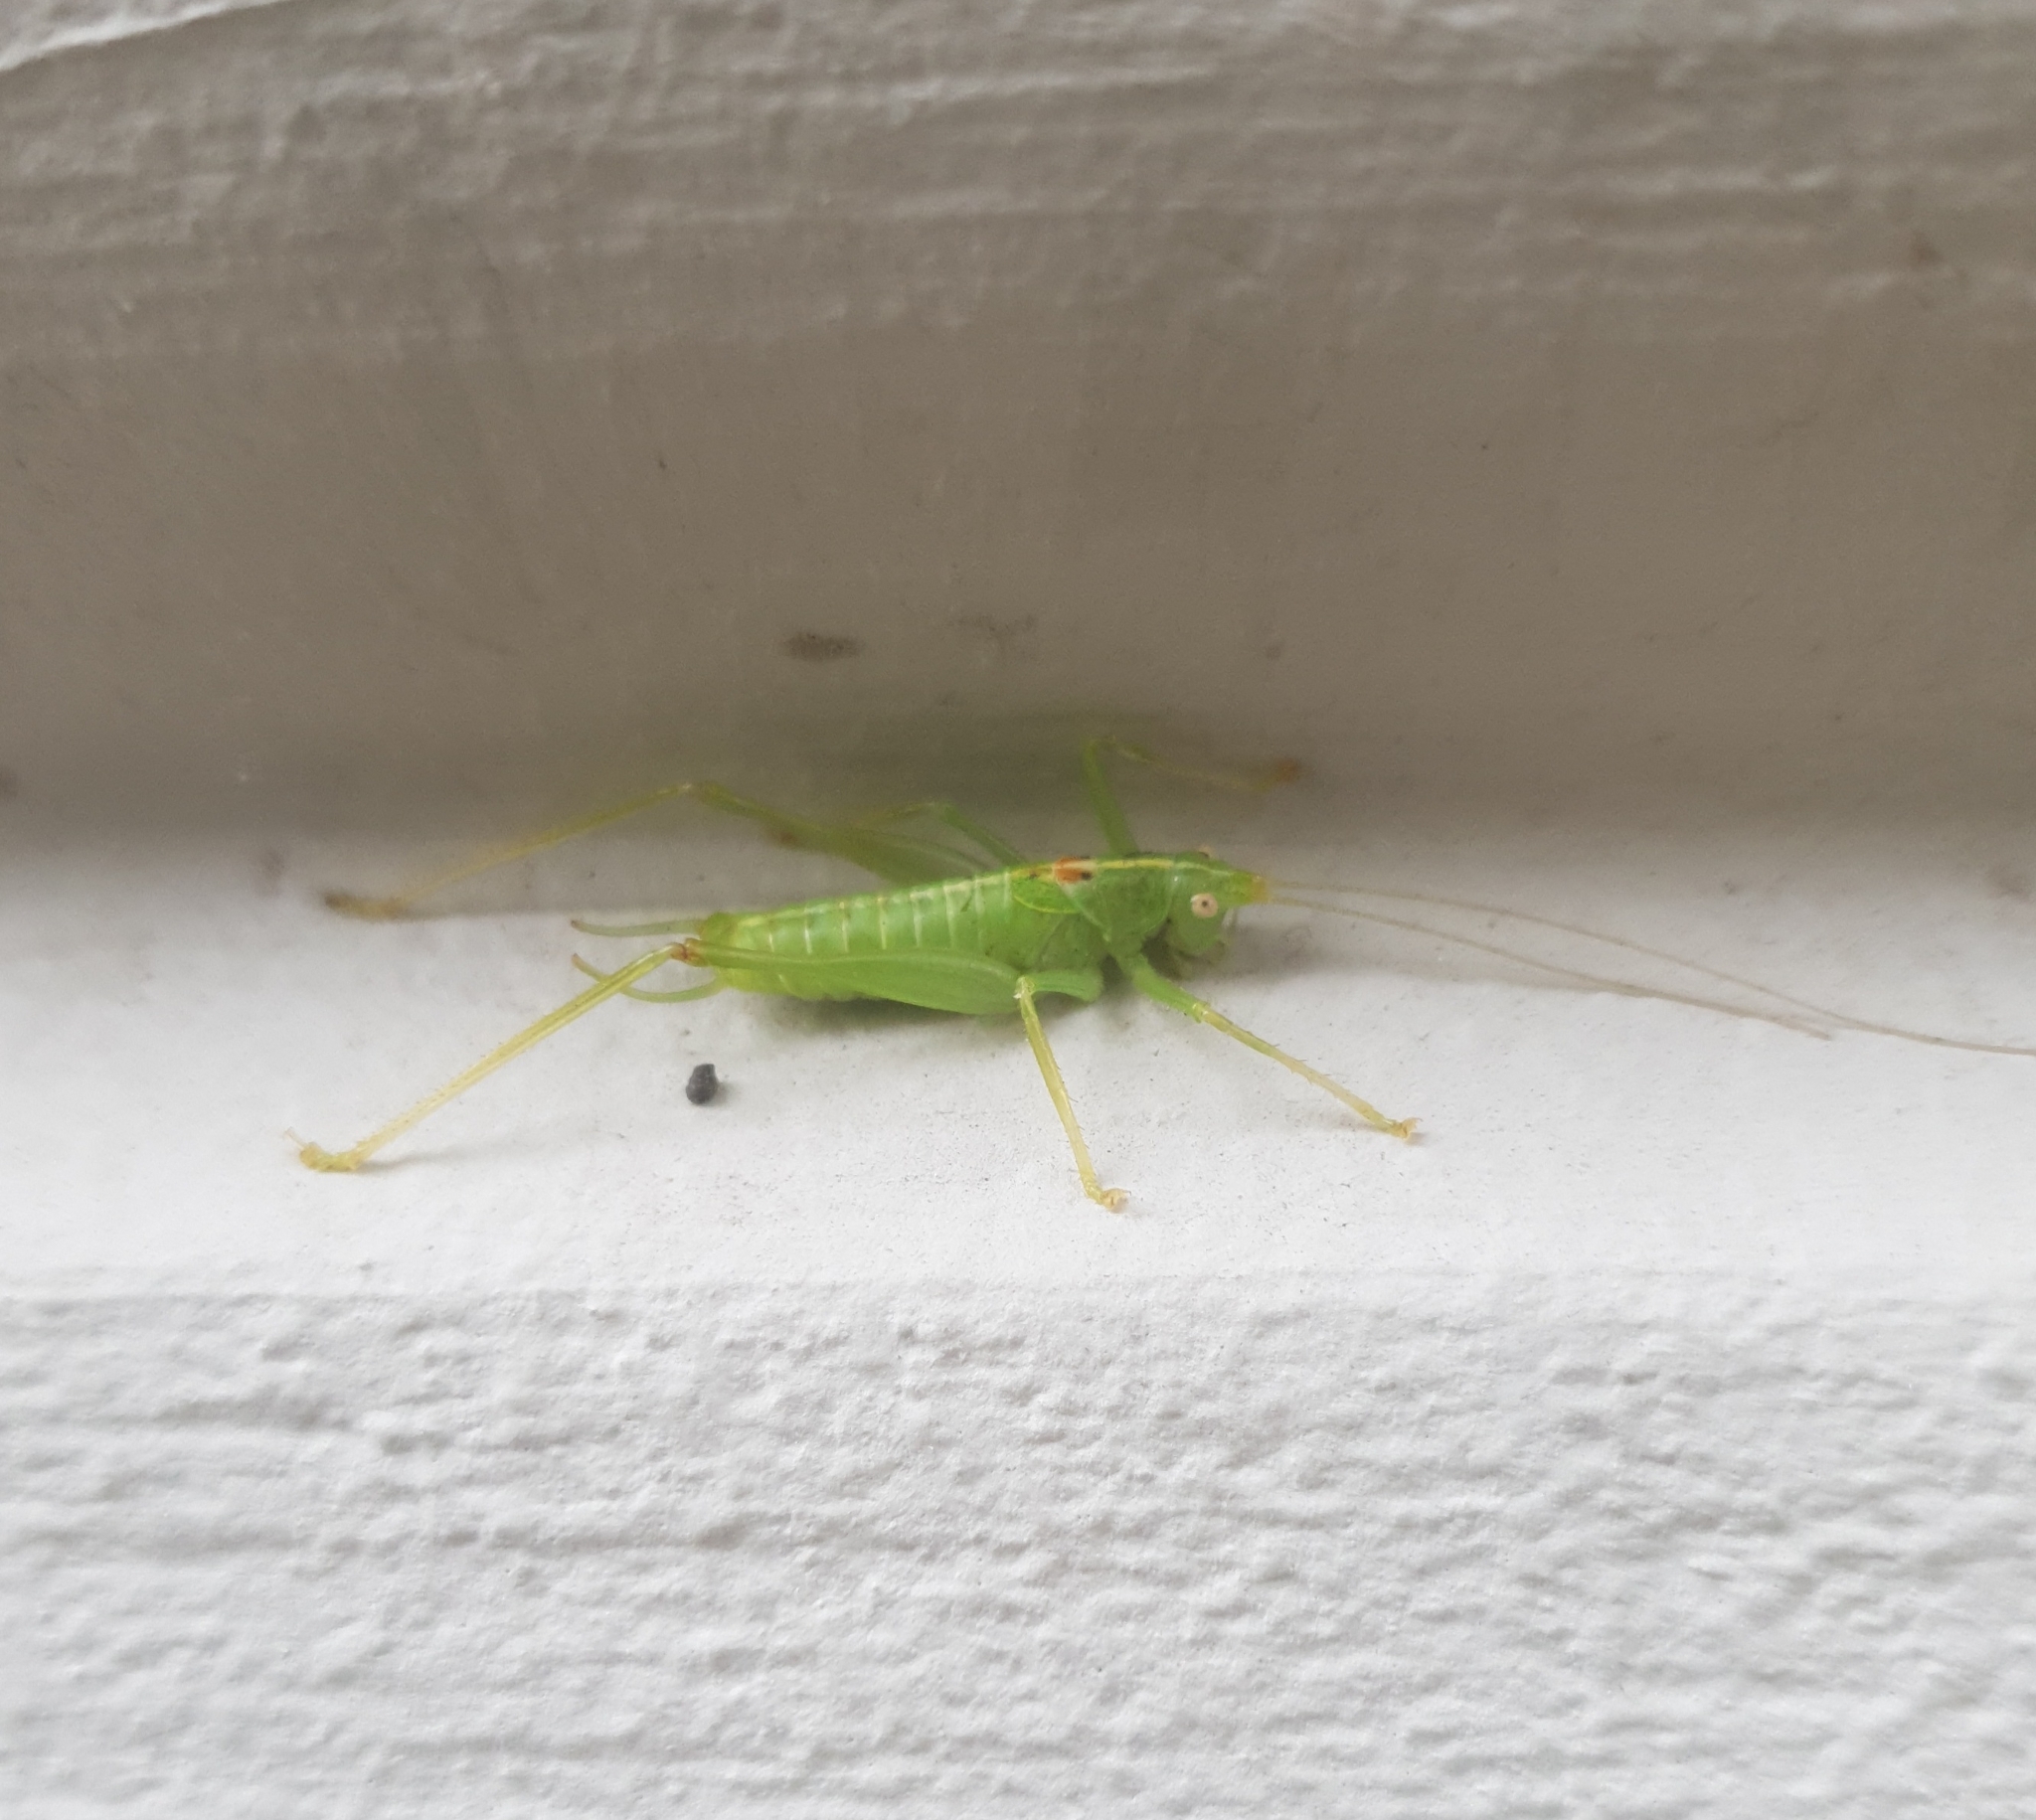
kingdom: Animalia
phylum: Arthropoda
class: Insecta
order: Orthoptera
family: Tettigoniidae
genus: Meconema
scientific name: Meconema meridionale
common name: Southern oak bush-cricket
